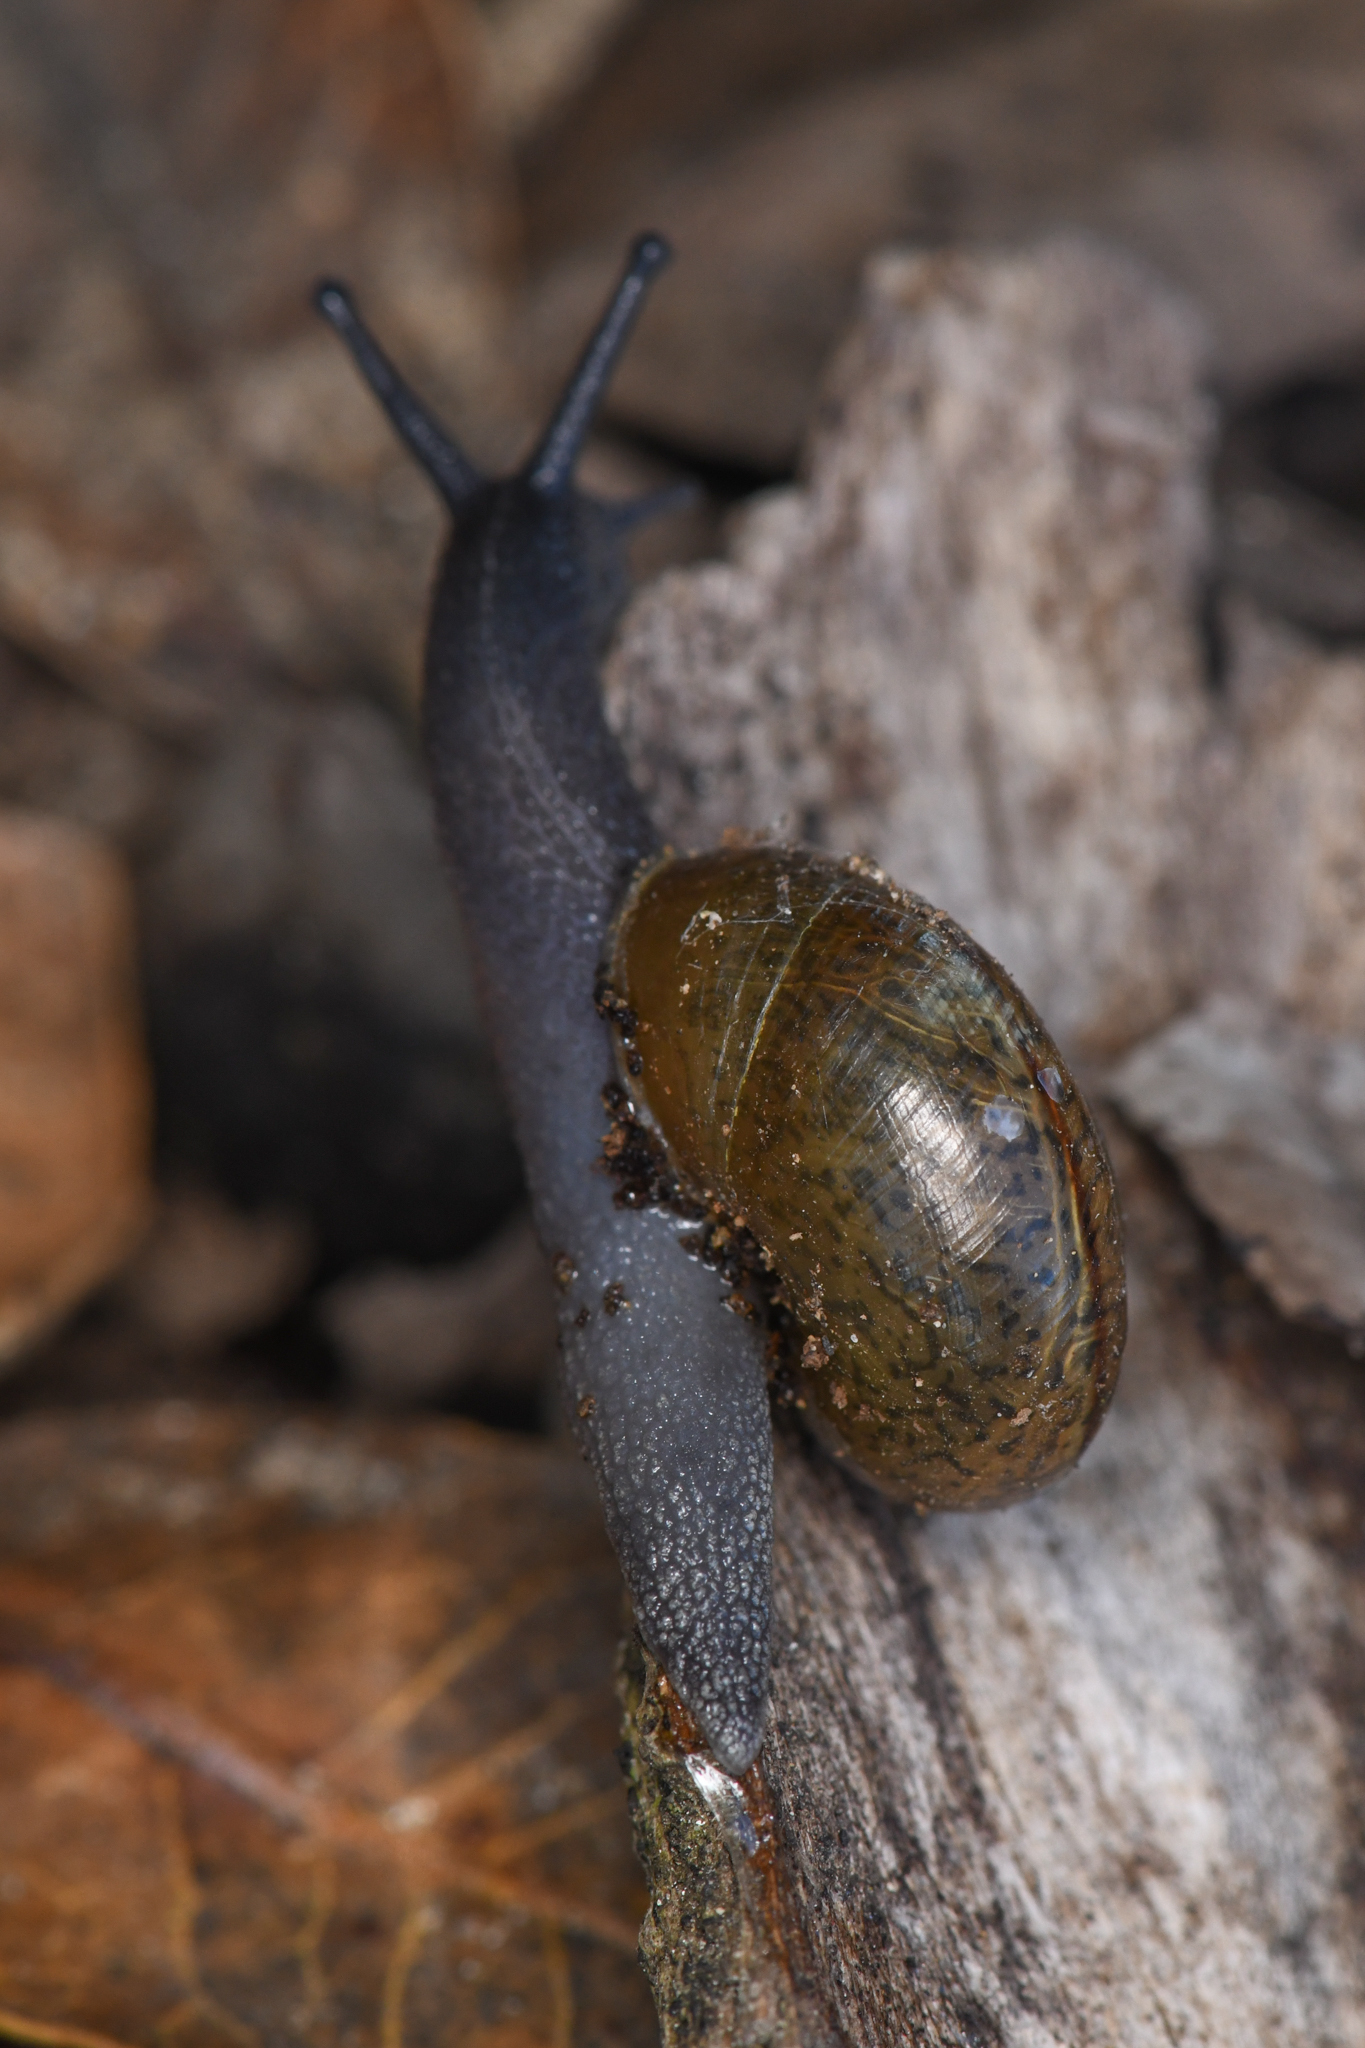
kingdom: Animalia
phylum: Mollusca
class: Gastropoda
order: Stylommatophora
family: Xanthonychidae
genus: Helminthoglypta
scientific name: Helminthoglypta coelata
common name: Mesa shoulderband
